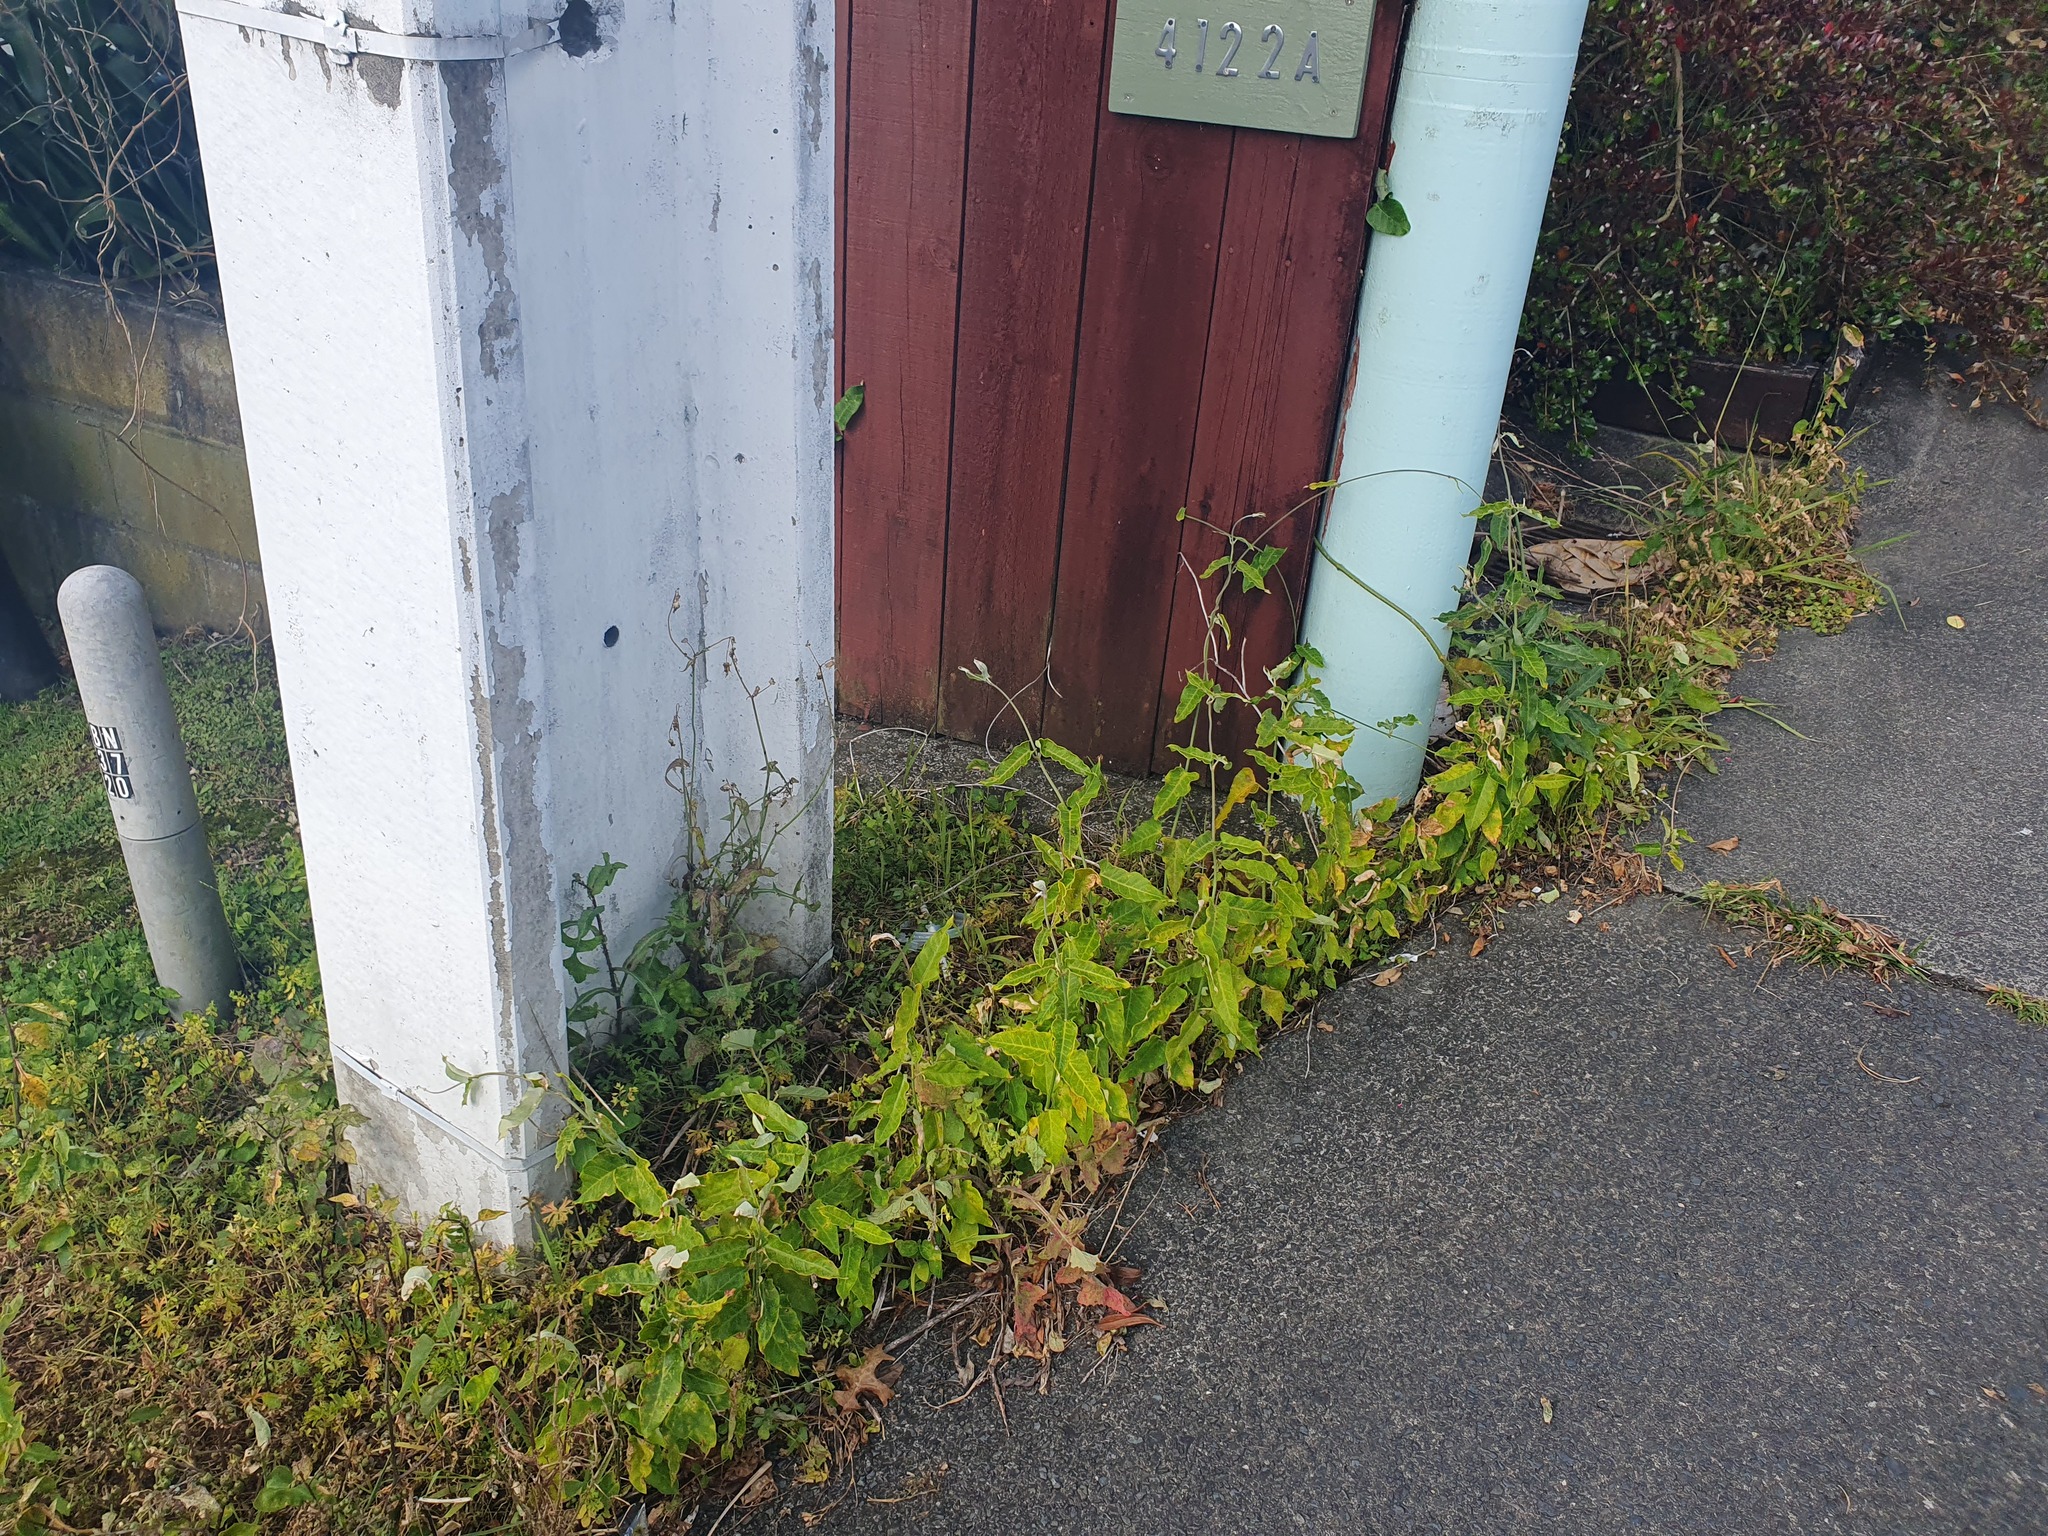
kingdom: Plantae
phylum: Tracheophyta
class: Magnoliopsida
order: Gentianales
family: Apocynaceae
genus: Araujia
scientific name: Araujia sericifera
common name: White bladderflower
